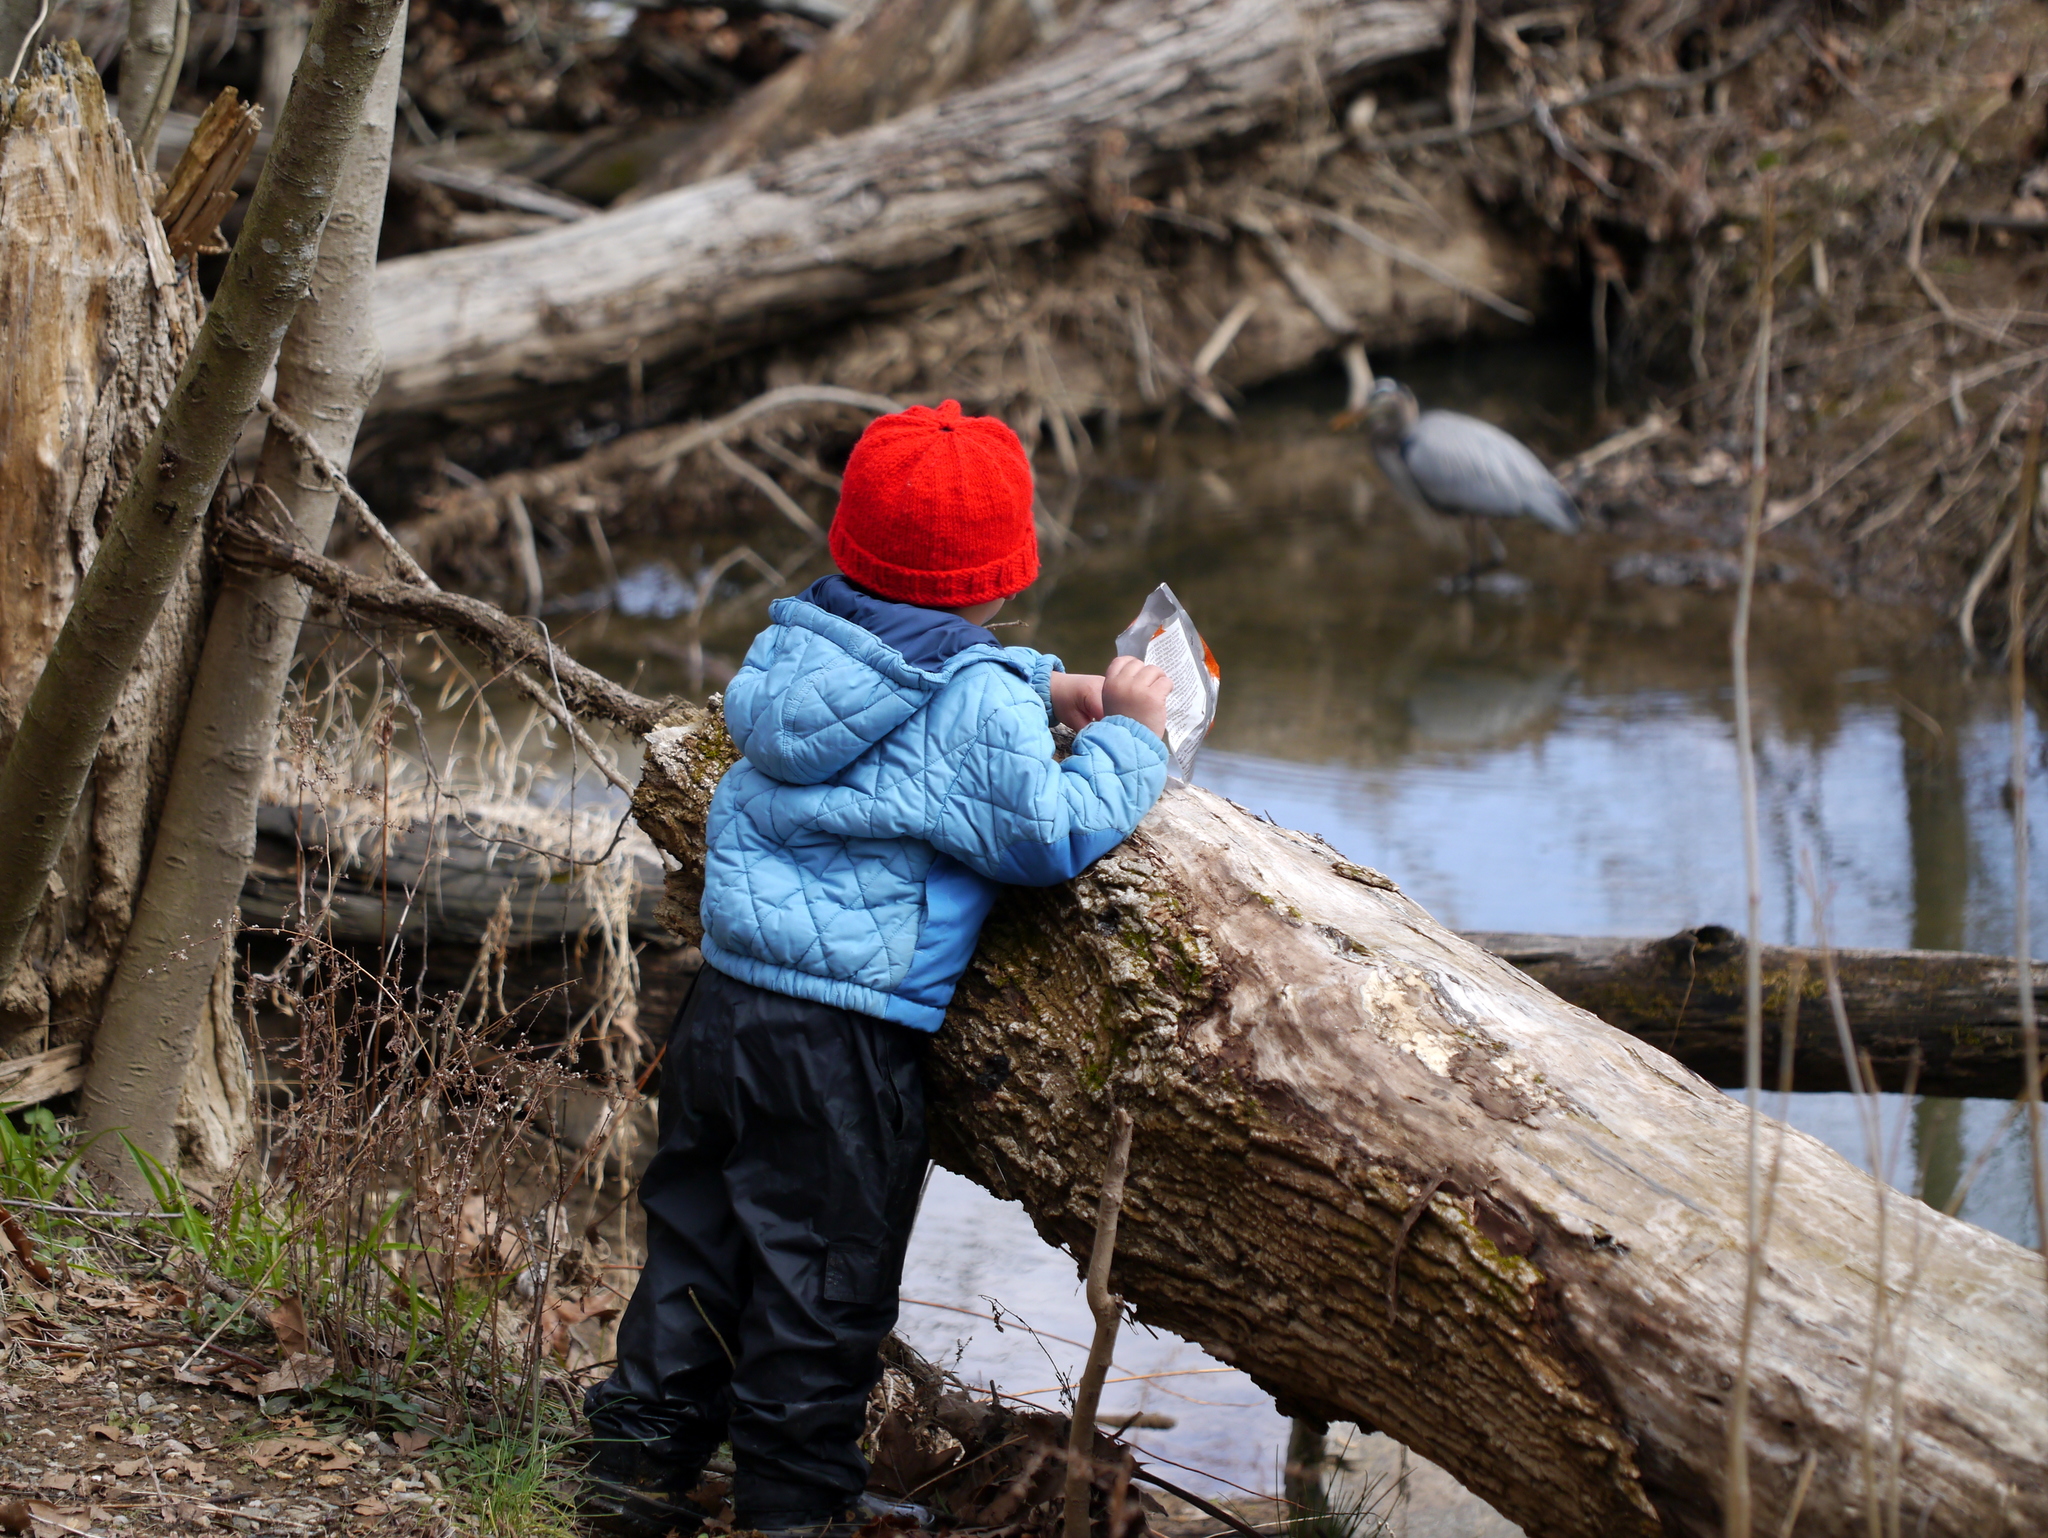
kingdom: Animalia
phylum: Chordata
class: Aves
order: Pelecaniformes
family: Ardeidae
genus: Ardea
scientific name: Ardea herodias
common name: Great blue heron
